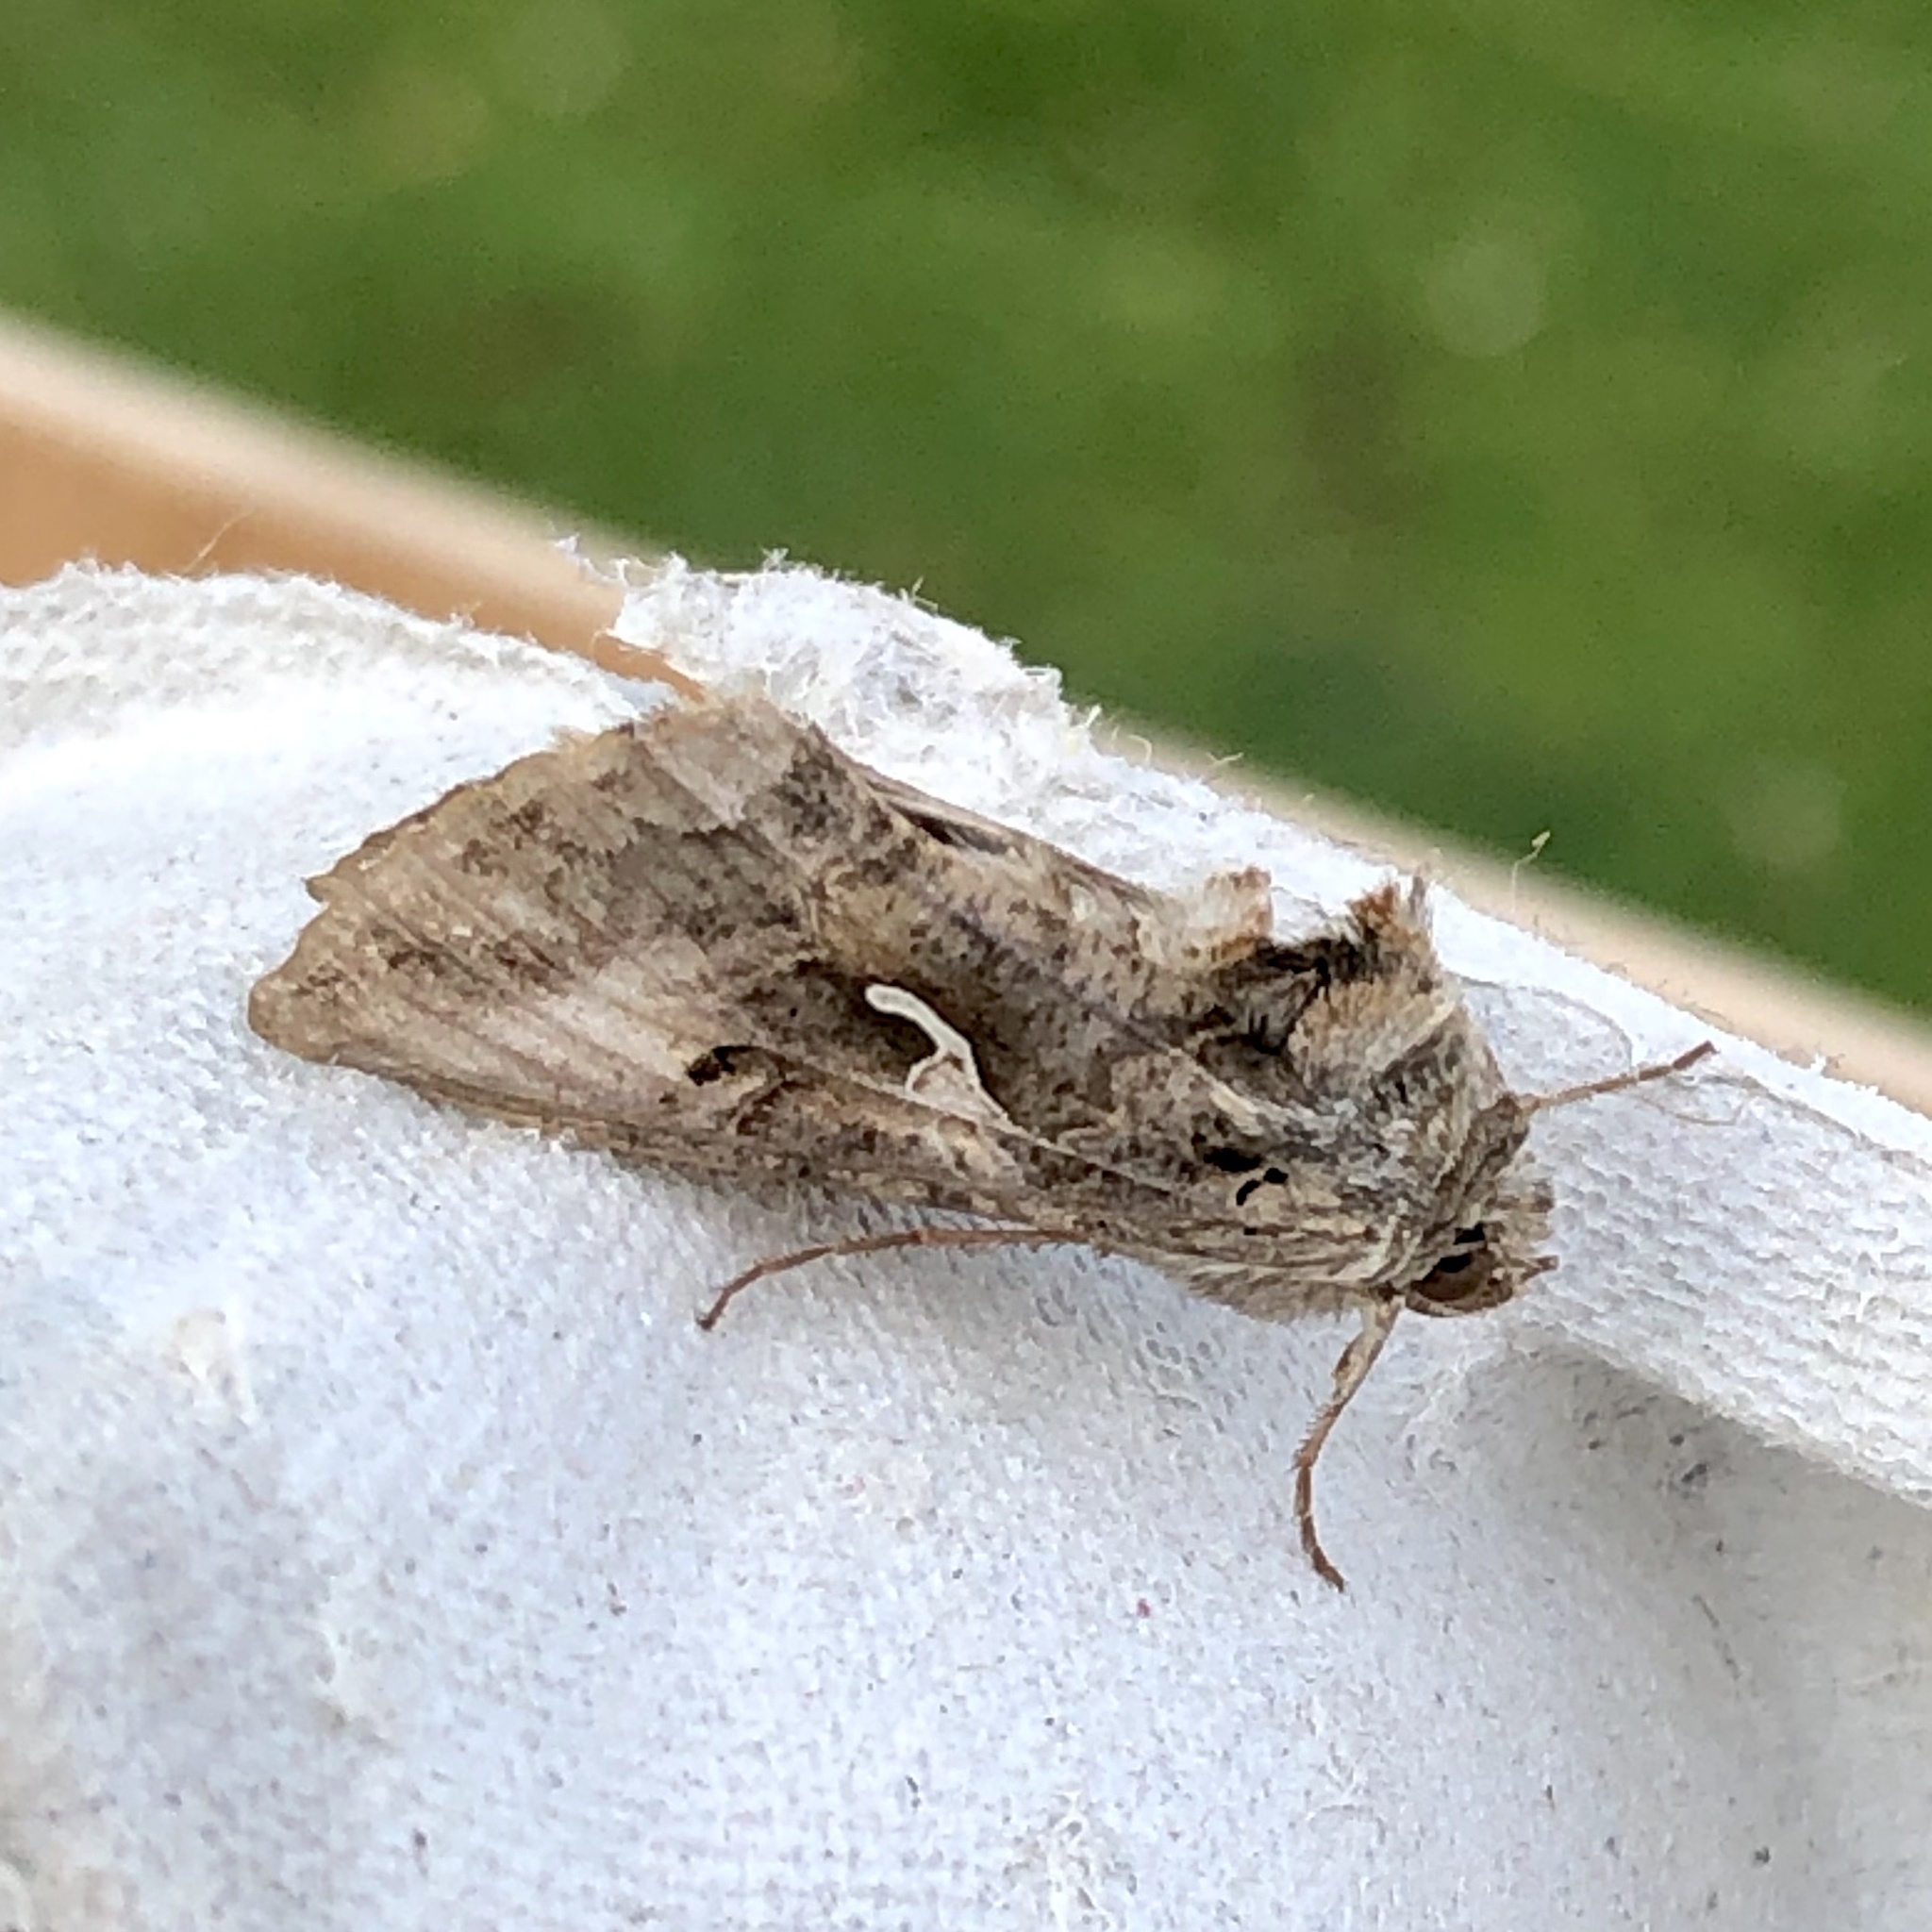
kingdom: Animalia
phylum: Arthropoda
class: Insecta
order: Lepidoptera
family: Noctuidae
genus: Autographa
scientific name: Autographa gamma
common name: Silver y
